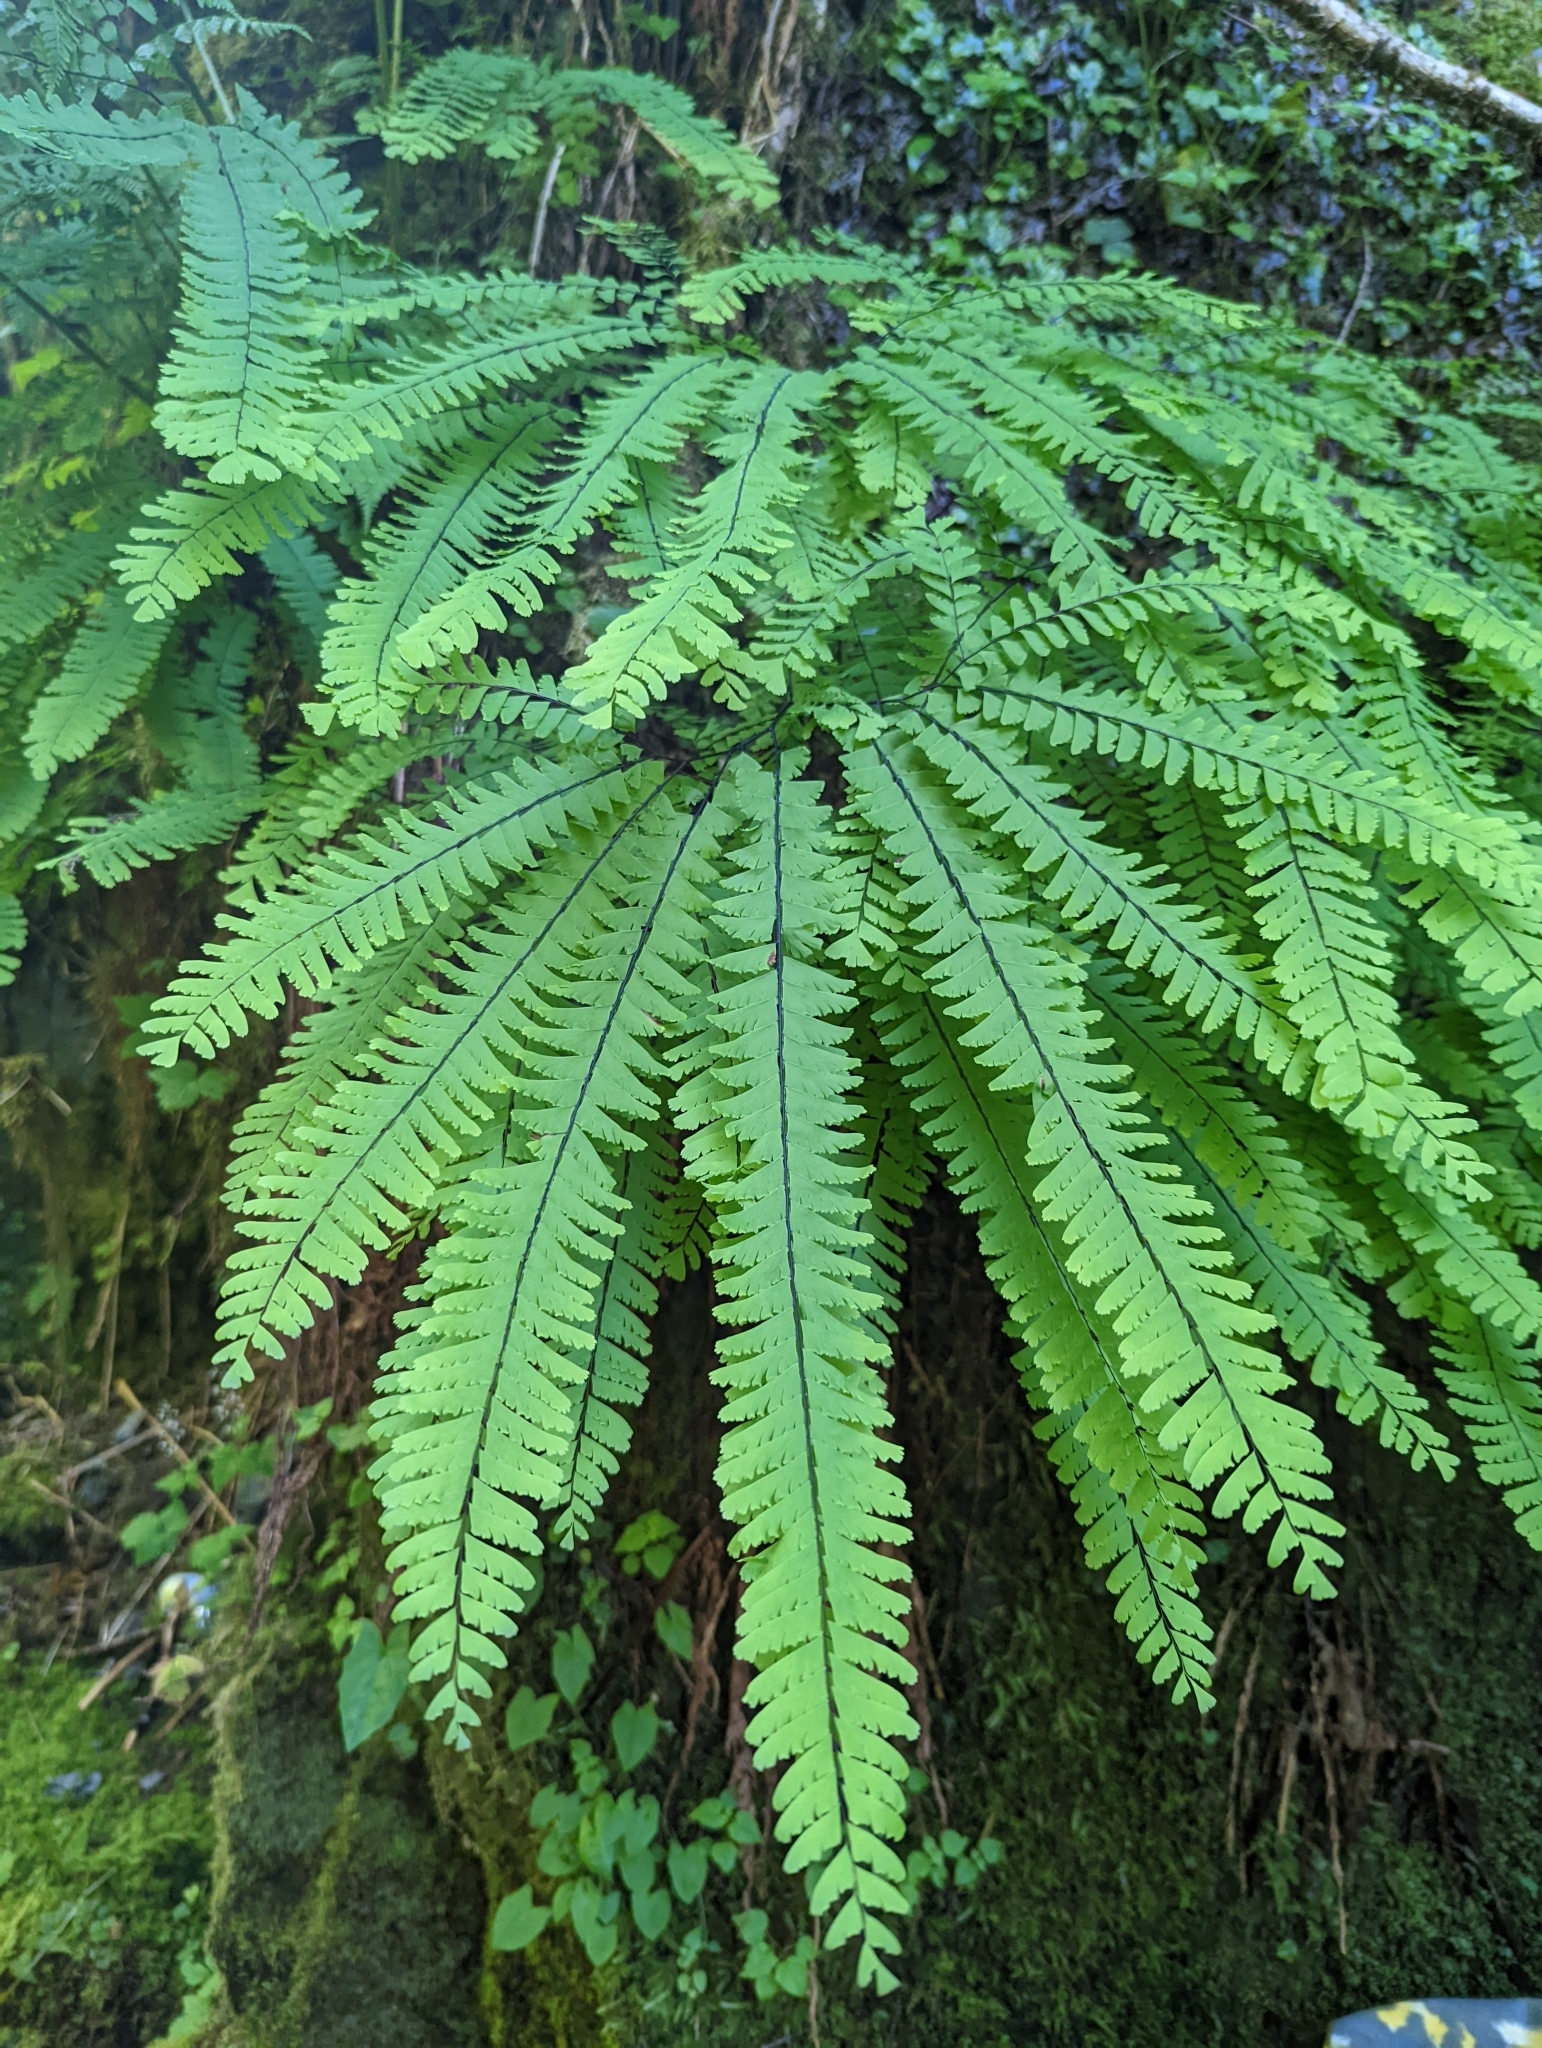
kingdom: Plantae
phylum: Tracheophyta
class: Polypodiopsida
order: Polypodiales
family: Pteridaceae
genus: Adiantum
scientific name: Adiantum aleuticum
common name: Aleutian maidenhair fern
